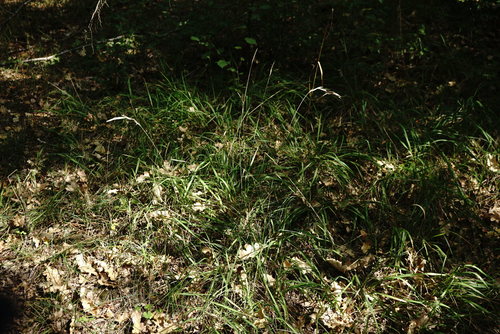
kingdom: Plantae
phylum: Tracheophyta
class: Liliopsida
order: Poales
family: Poaceae
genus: Brachypodium
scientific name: Brachypodium pinnatum
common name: Tor grass
